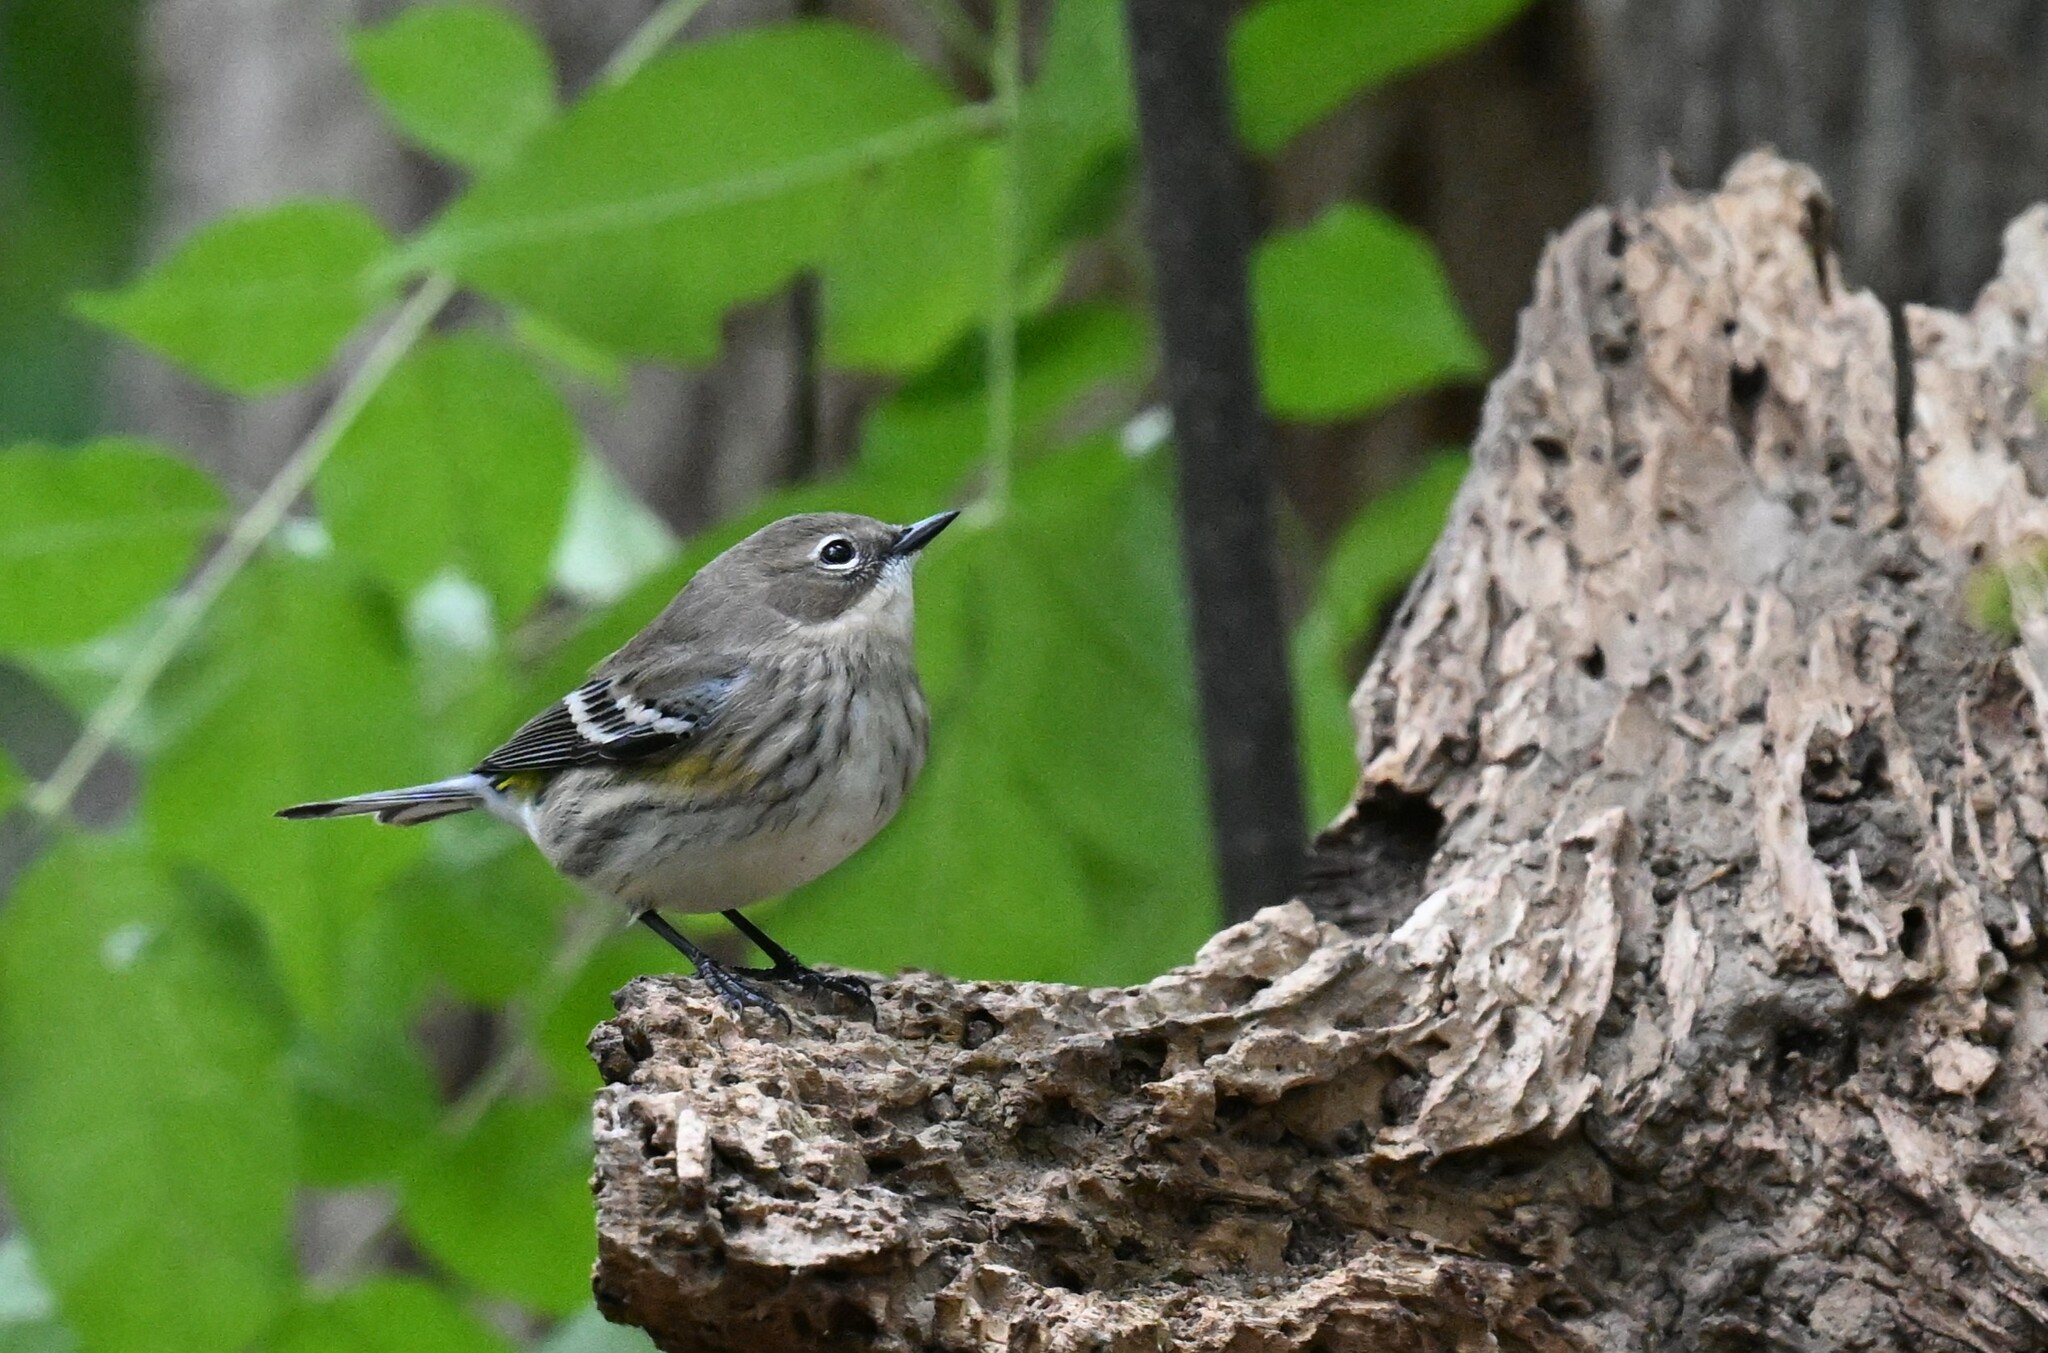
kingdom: Animalia
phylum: Chordata
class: Aves
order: Passeriformes
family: Parulidae
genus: Setophaga
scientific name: Setophaga coronata
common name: Myrtle warbler
